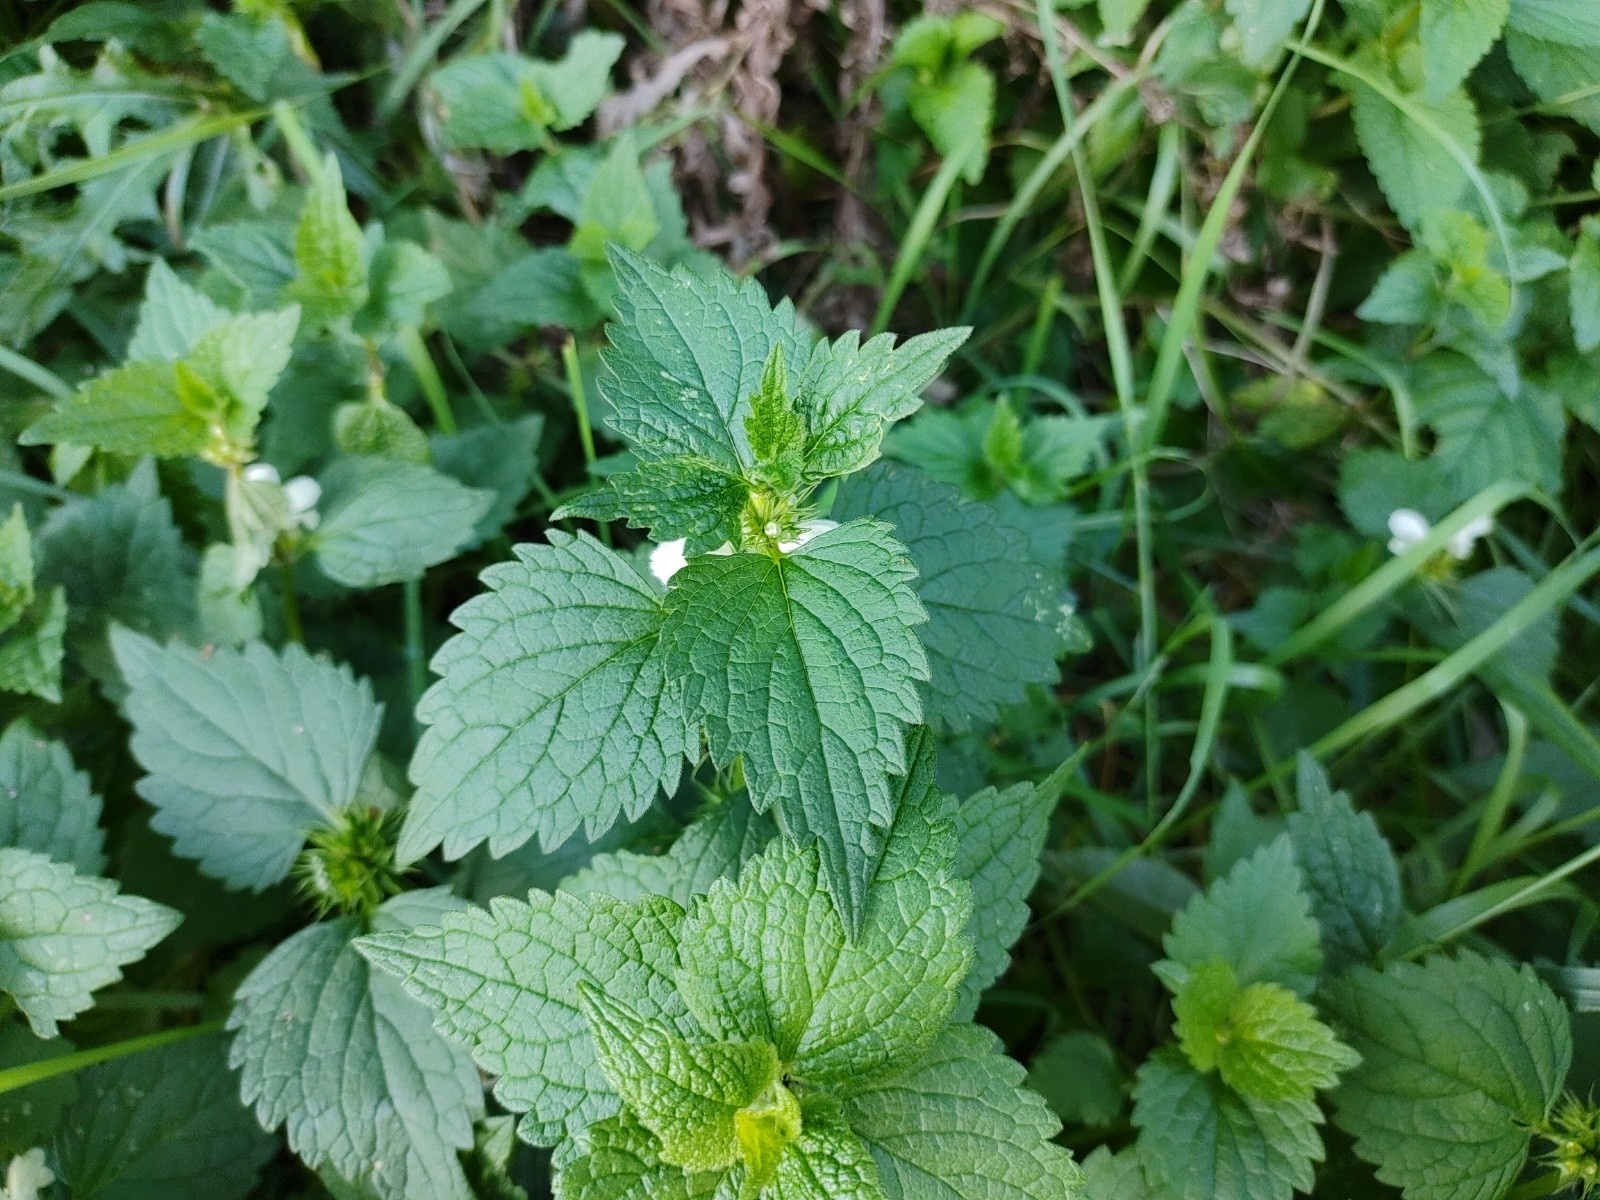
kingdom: Plantae
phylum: Tracheophyta
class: Magnoliopsida
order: Lamiales
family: Lamiaceae
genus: Lamium
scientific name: Lamium album
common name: White dead-nettle
